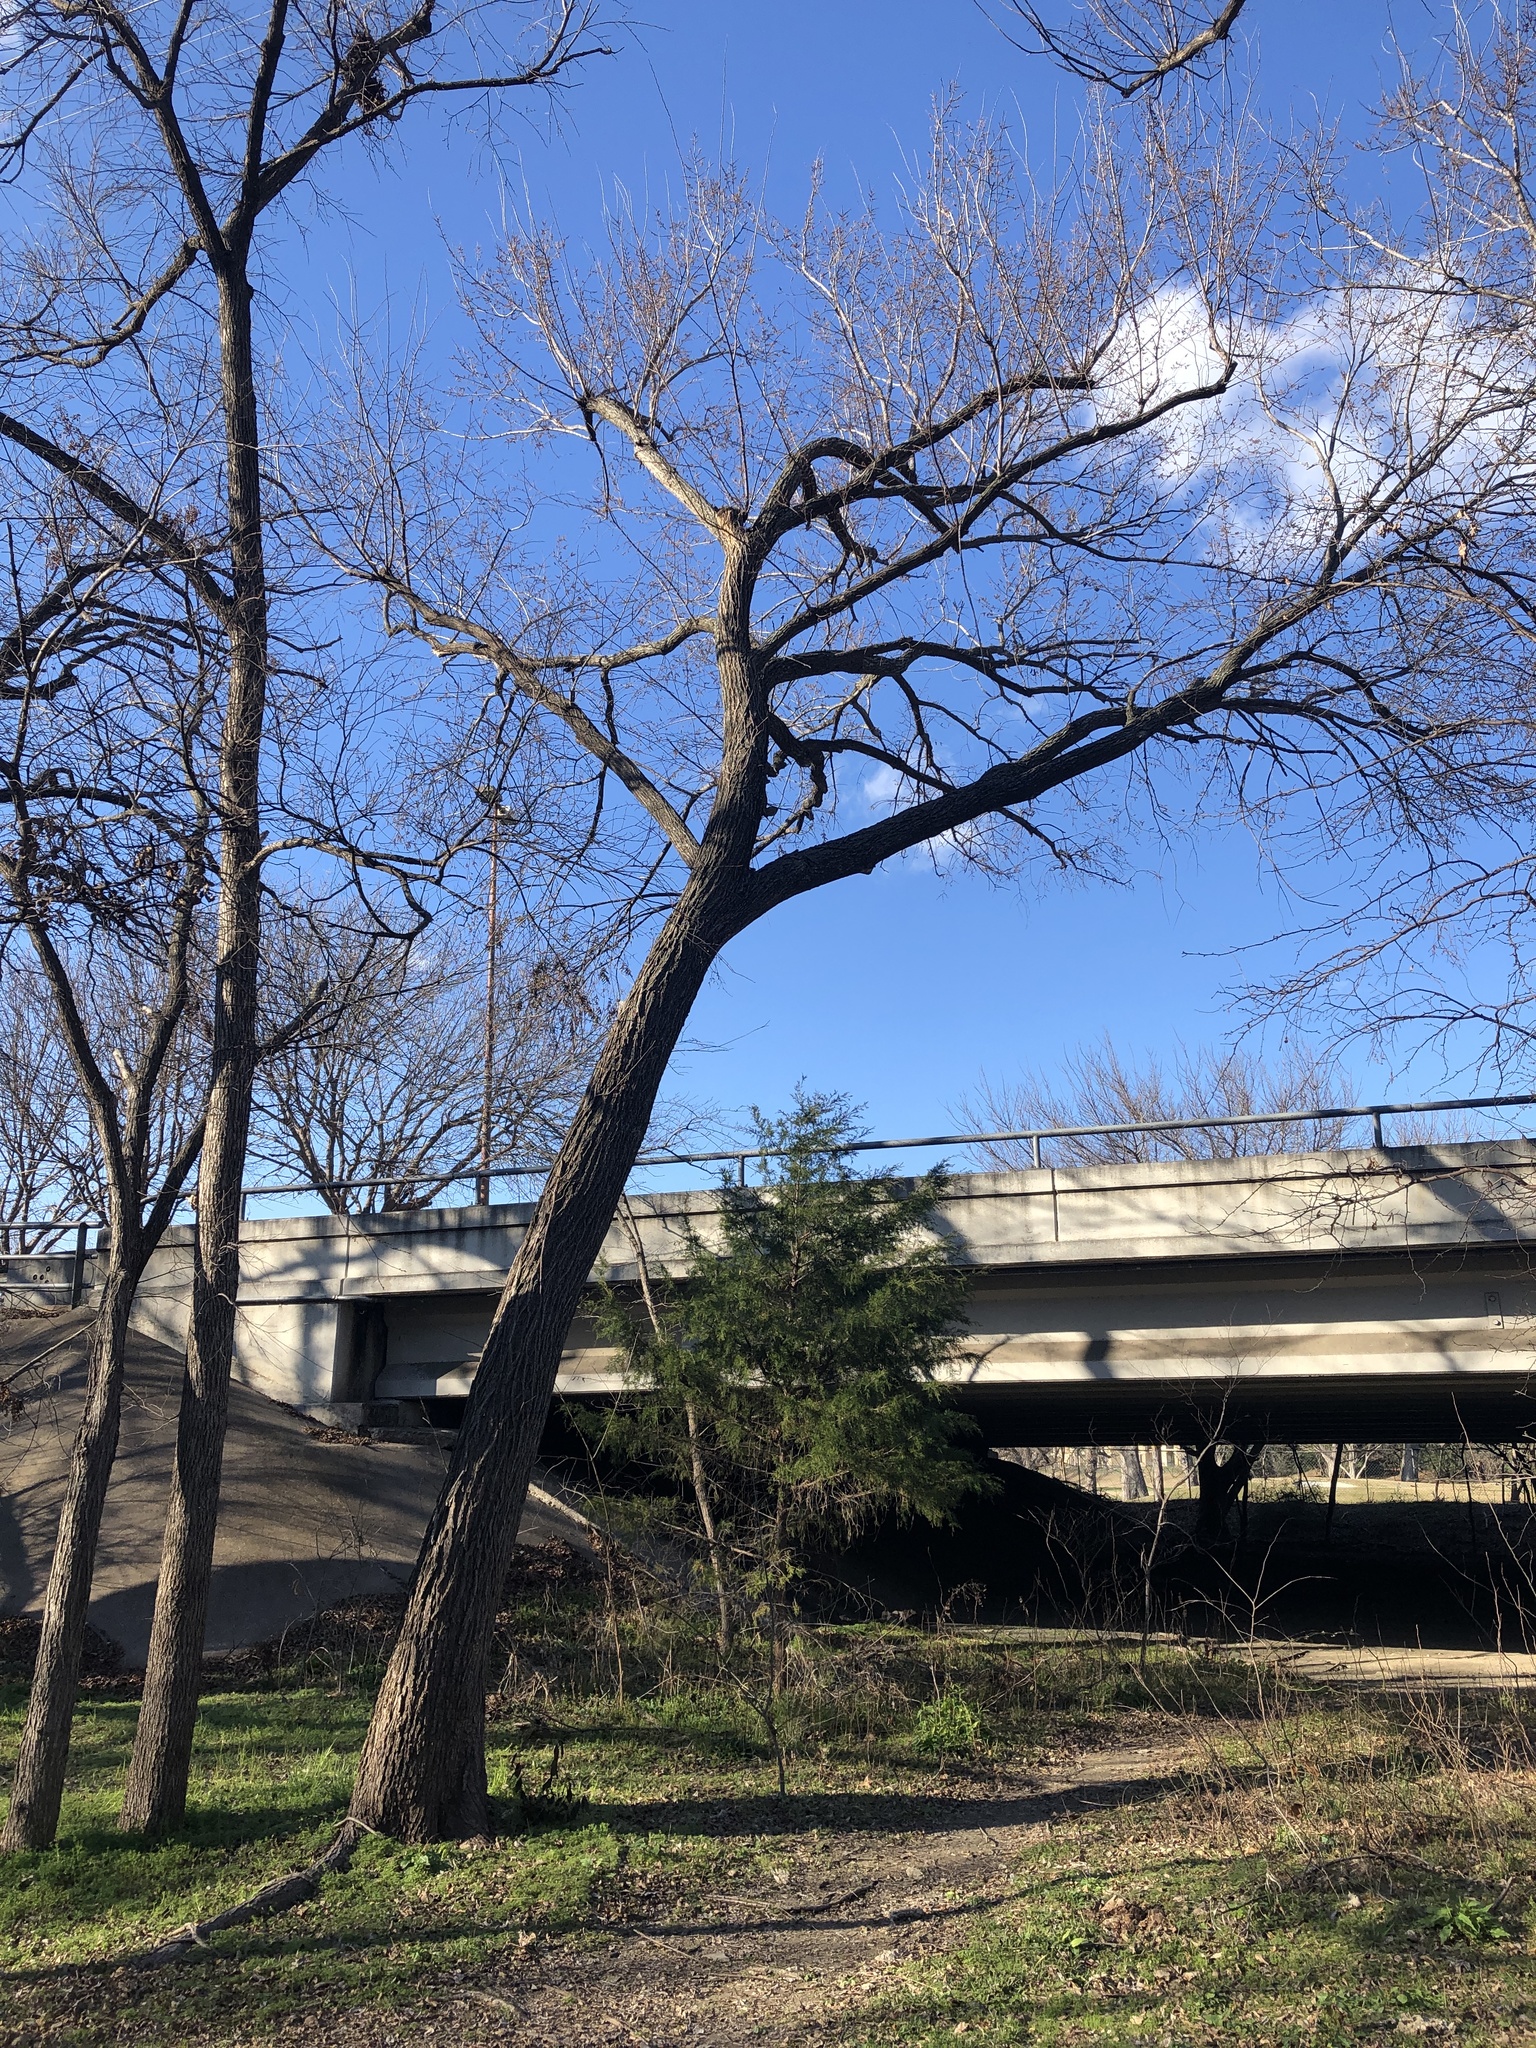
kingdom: Plantae
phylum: Tracheophyta
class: Magnoliopsida
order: Rosales
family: Ulmaceae
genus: Ulmus
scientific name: Ulmus americana
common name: American elm
